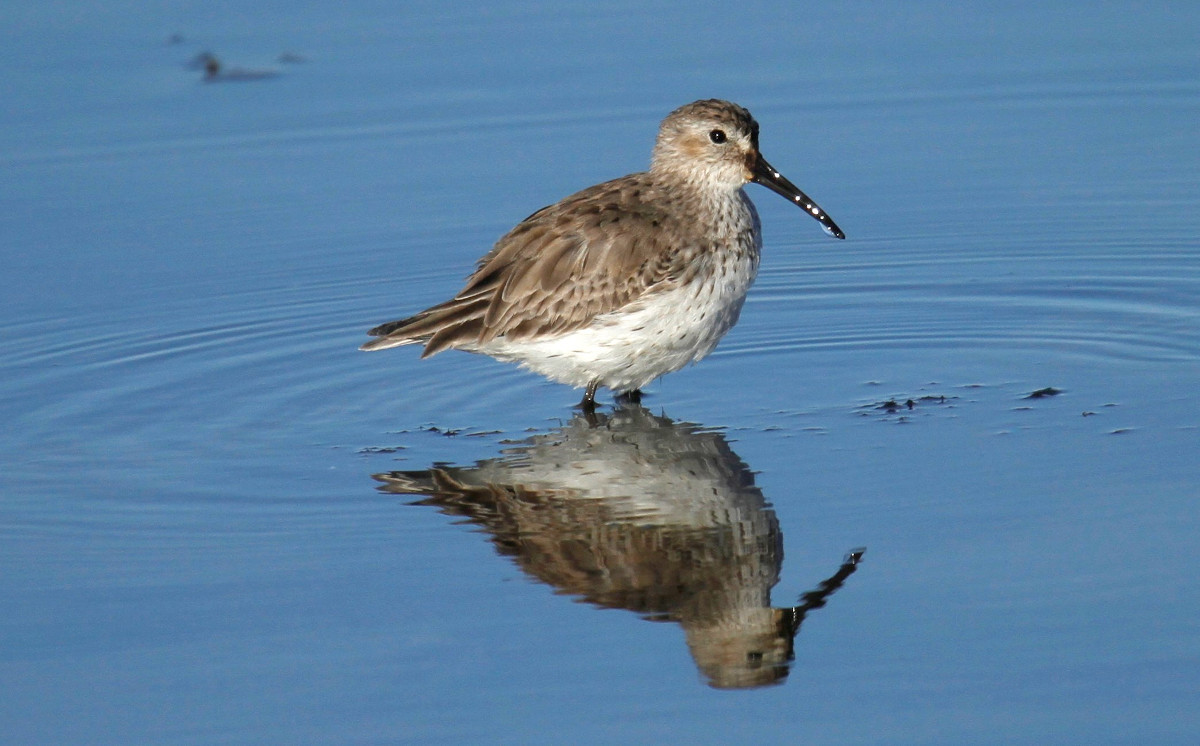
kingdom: Animalia
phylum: Chordata
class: Aves
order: Charadriiformes
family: Scolopacidae
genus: Calidris
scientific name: Calidris alpina
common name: Dunlin
